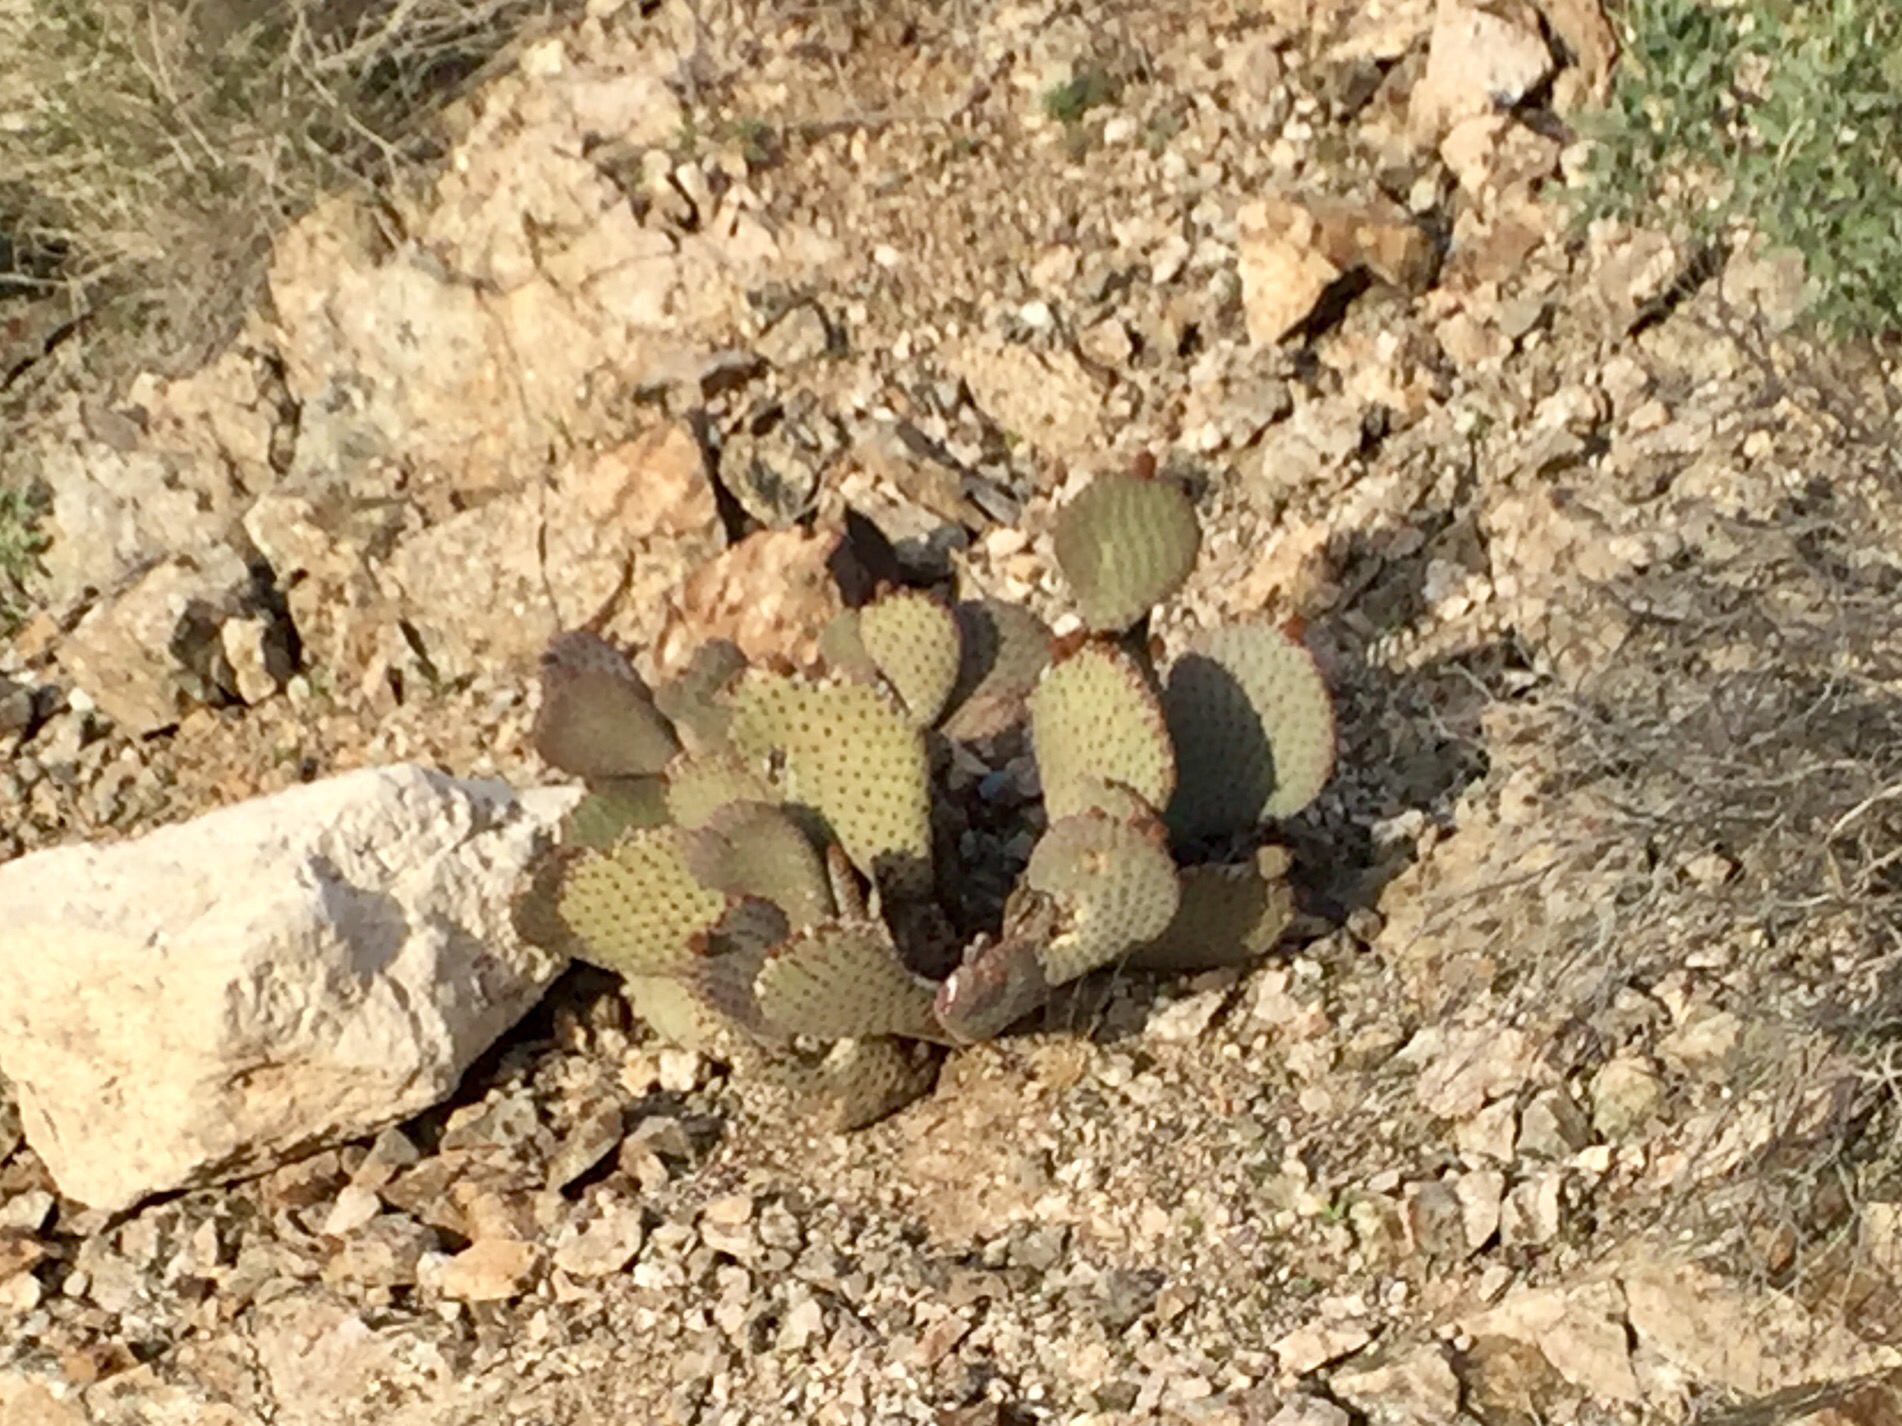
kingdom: Plantae
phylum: Tracheophyta
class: Magnoliopsida
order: Caryophyllales
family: Cactaceae
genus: Opuntia
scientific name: Opuntia basilaris
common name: Beavertail prickly-pear
